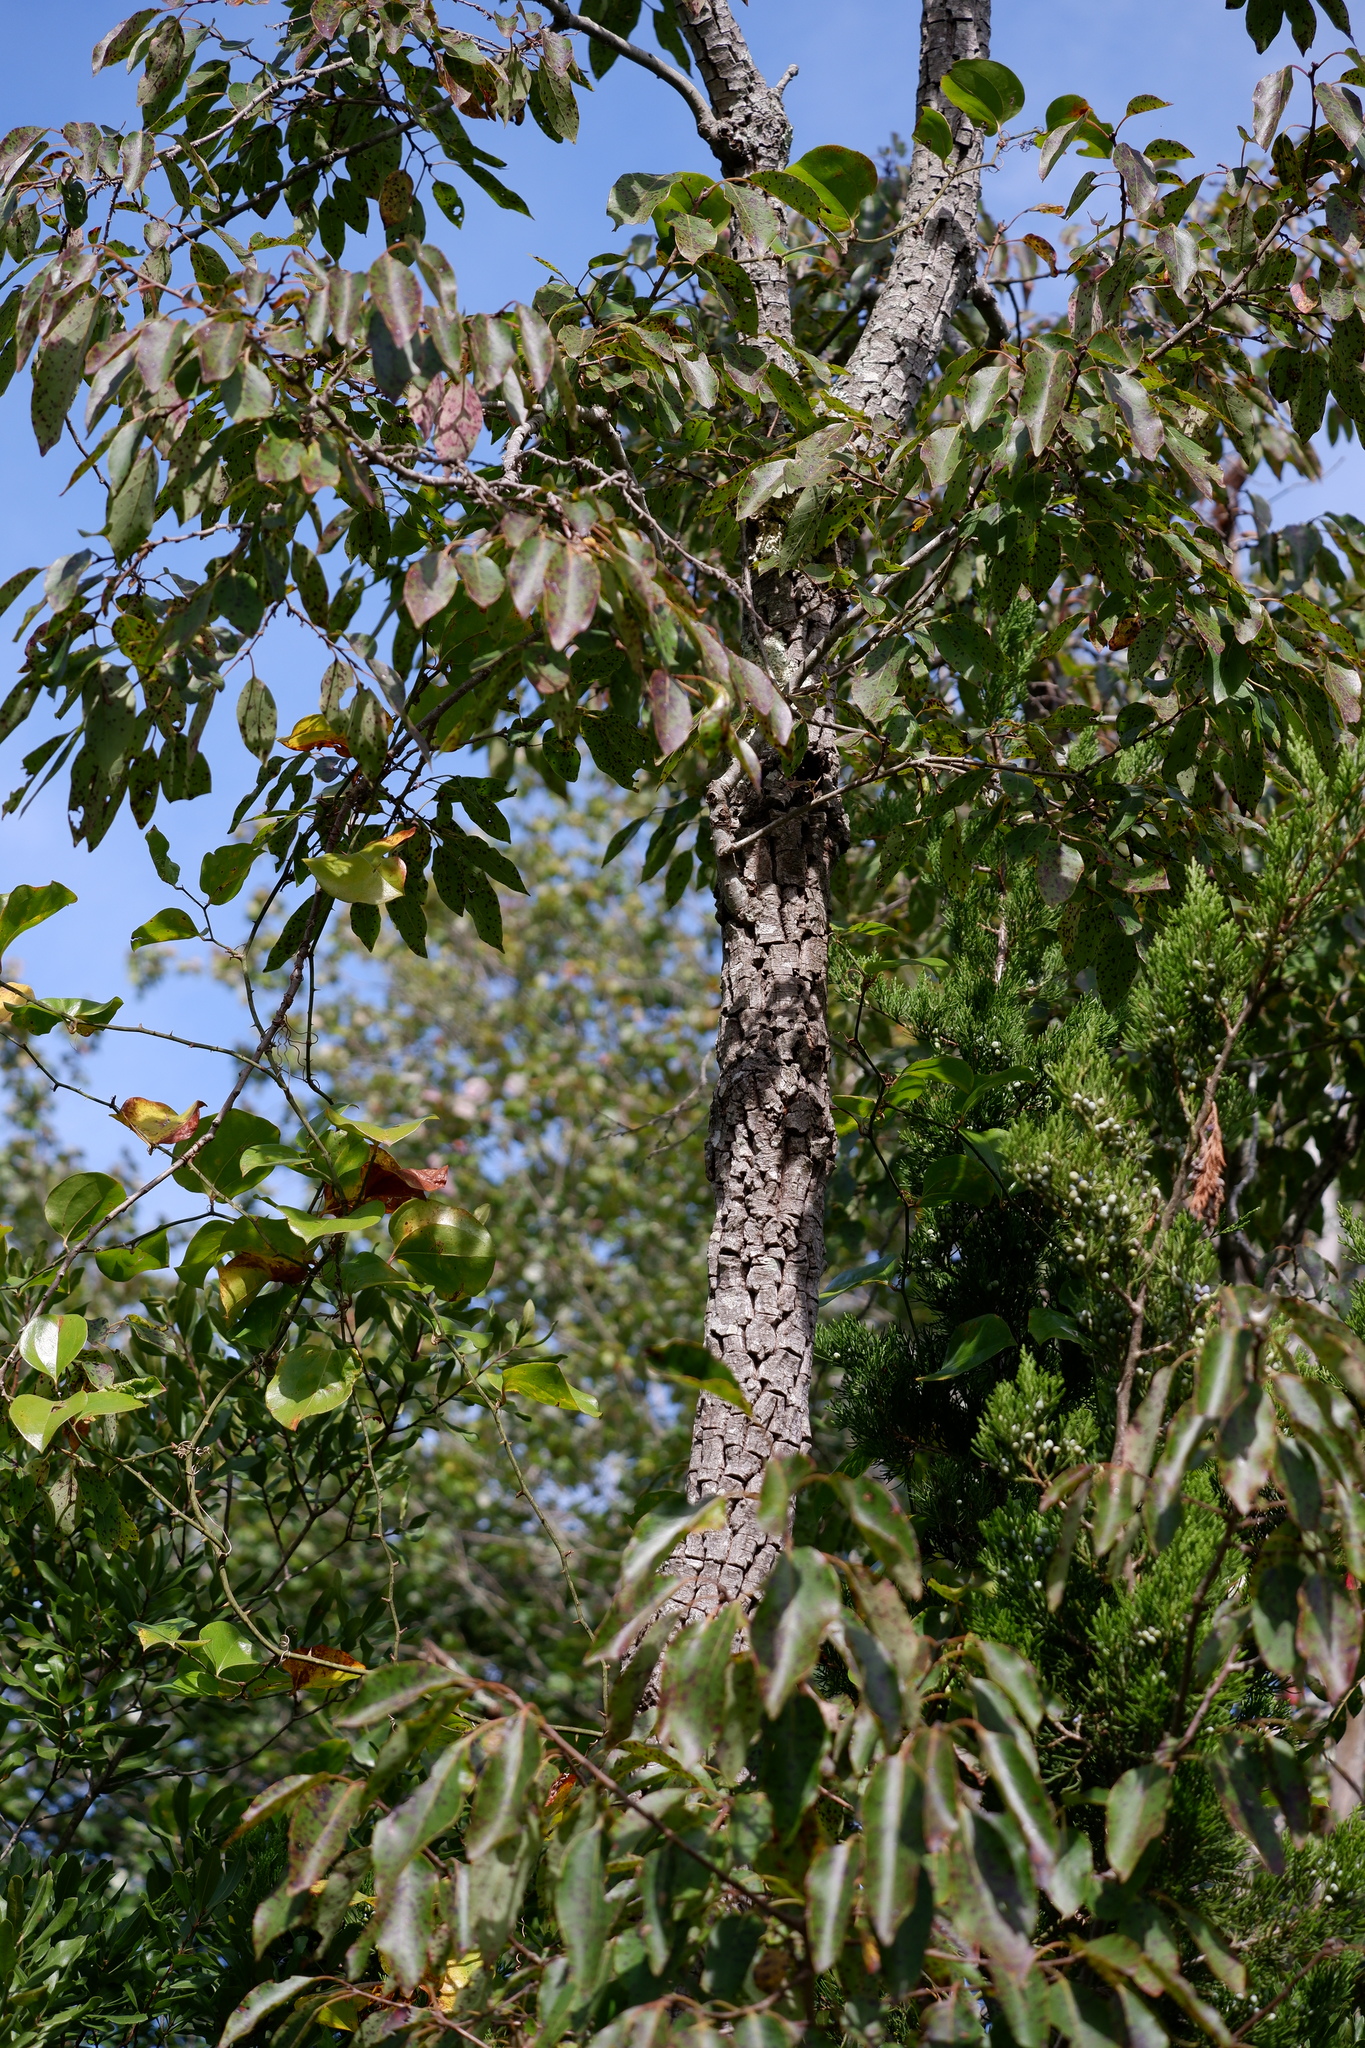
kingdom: Plantae
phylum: Tracheophyta
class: Magnoliopsida
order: Ericales
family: Ebenaceae
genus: Diospyros
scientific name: Diospyros virginiana
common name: Persimmon
